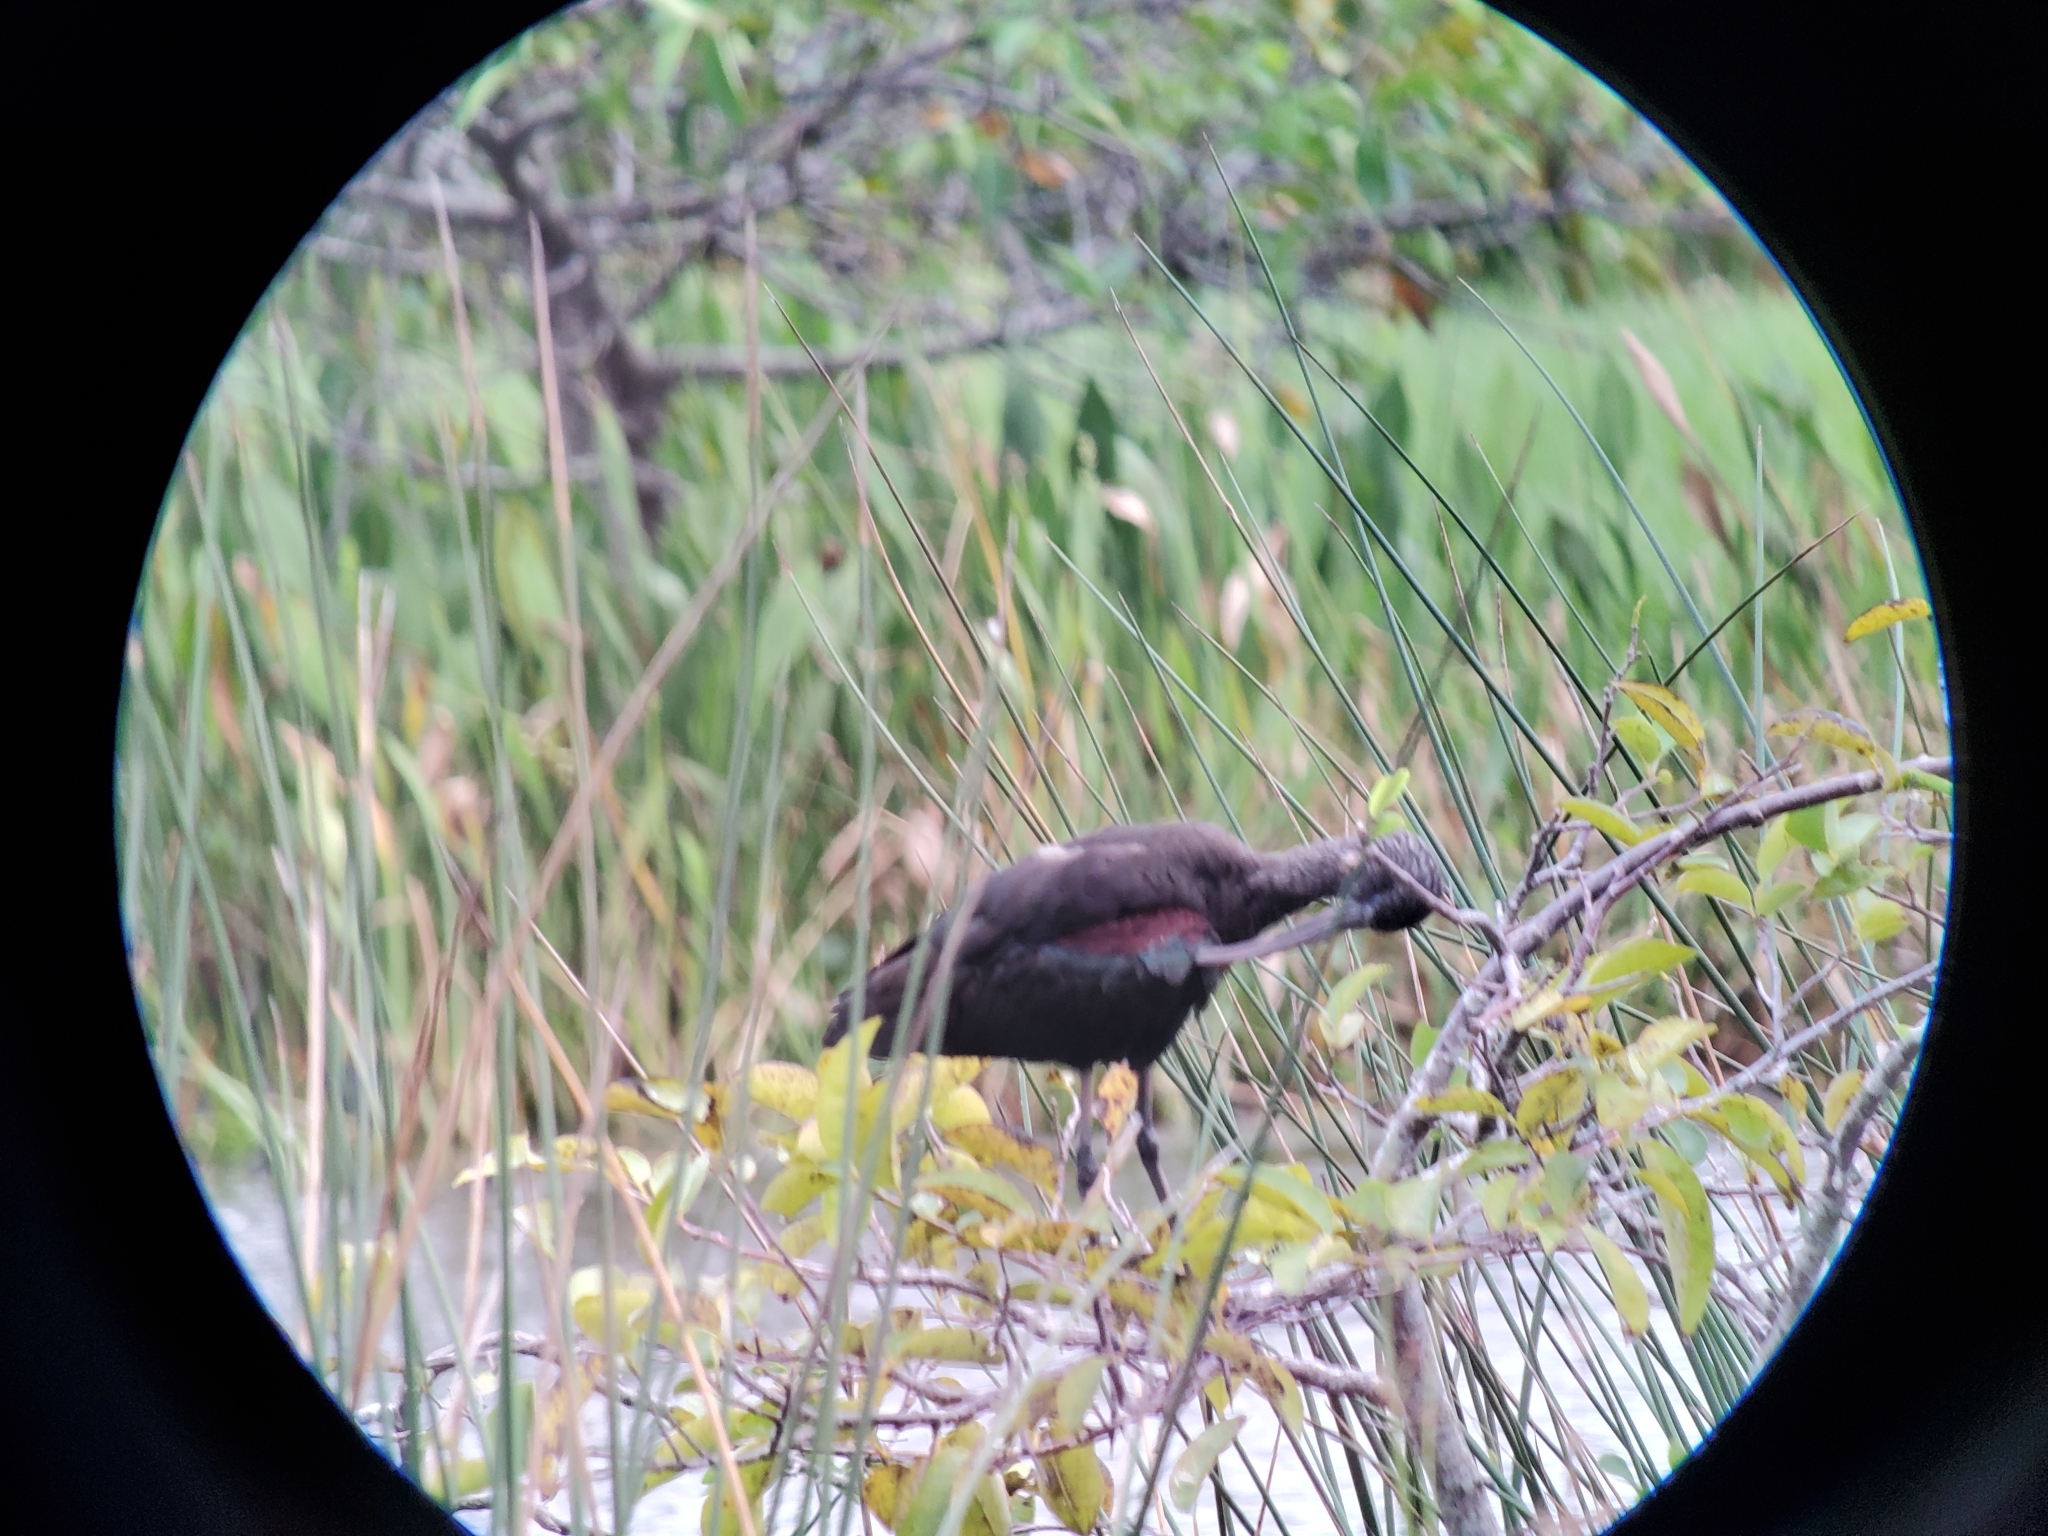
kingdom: Animalia
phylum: Chordata
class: Aves
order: Pelecaniformes
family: Threskiornithidae
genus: Plegadis
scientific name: Plegadis falcinellus
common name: Glossy ibis
